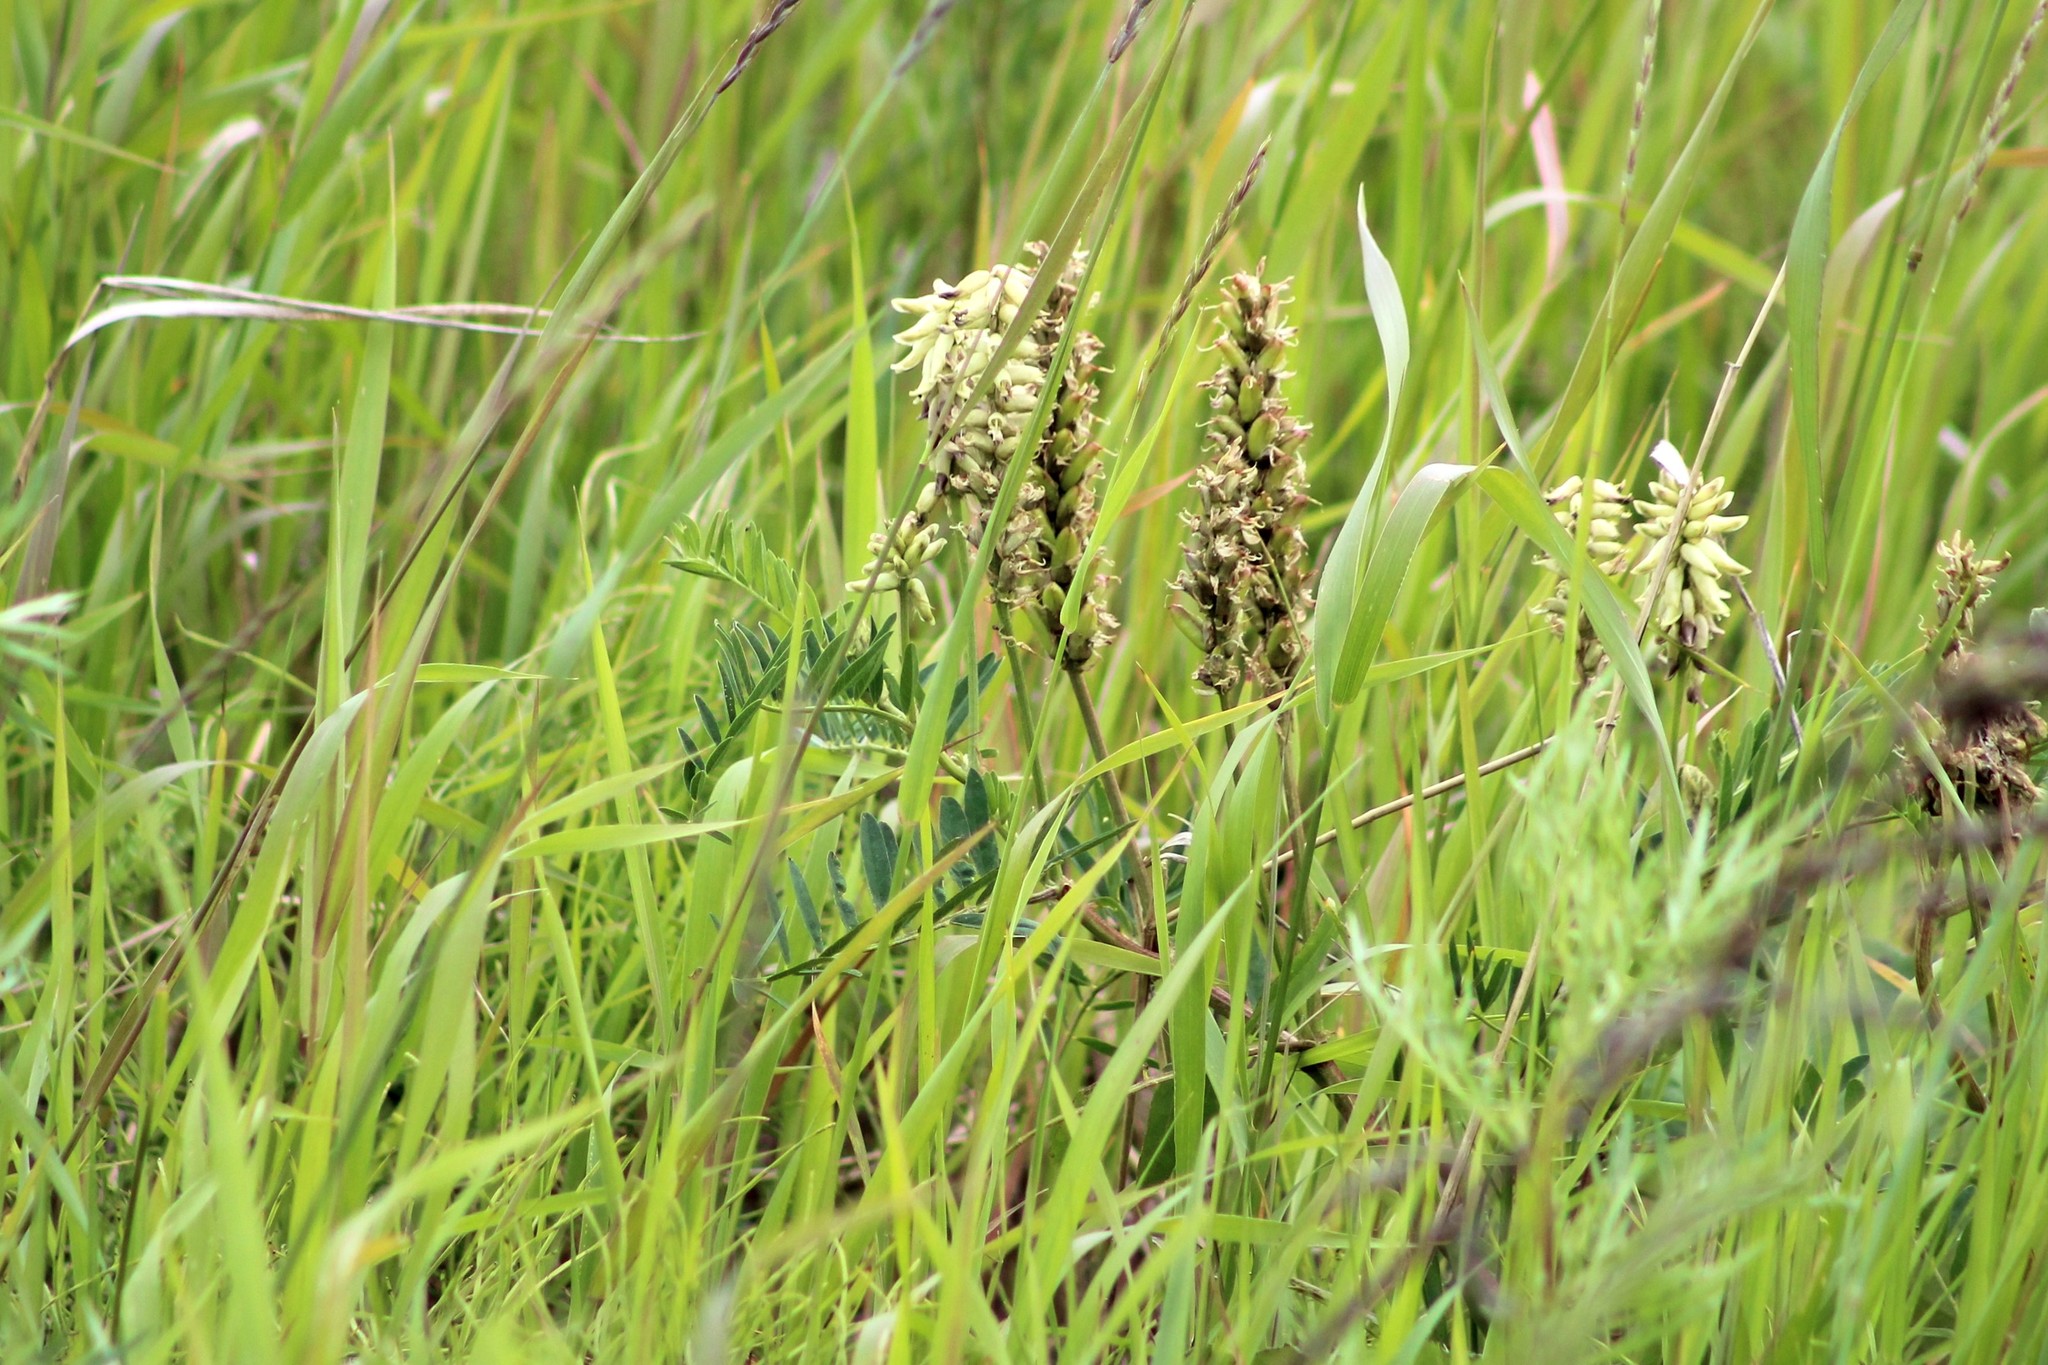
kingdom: Plantae
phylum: Tracheophyta
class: Magnoliopsida
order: Fabales
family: Fabaceae
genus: Astragalus
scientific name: Astragalus uliginosus
